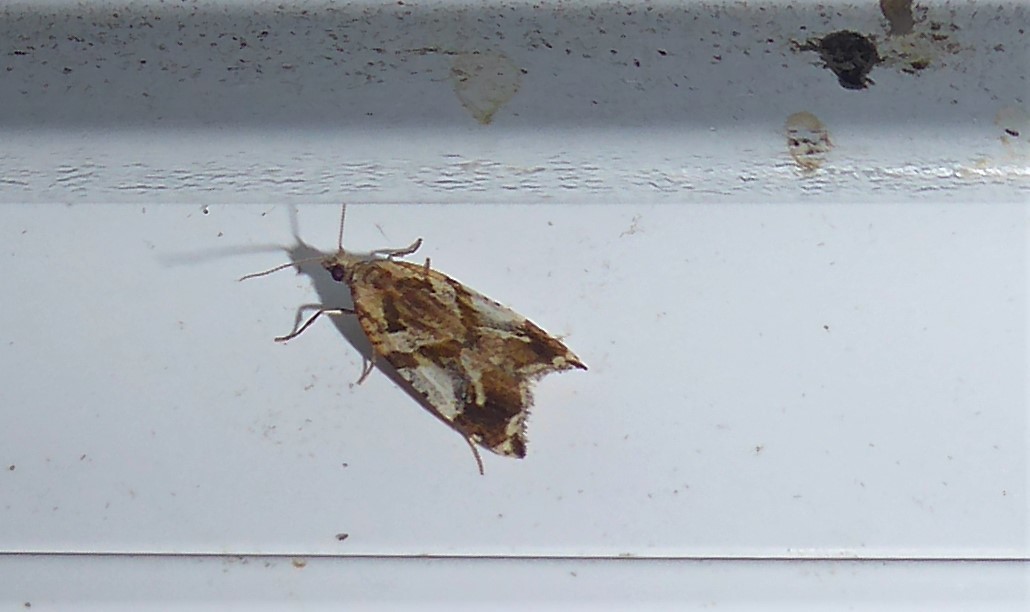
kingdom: Animalia
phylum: Arthropoda
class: Insecta
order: Lepidoptera
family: Tortricidae
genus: Pyrgotis
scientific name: Pyrgotis plagiatana
